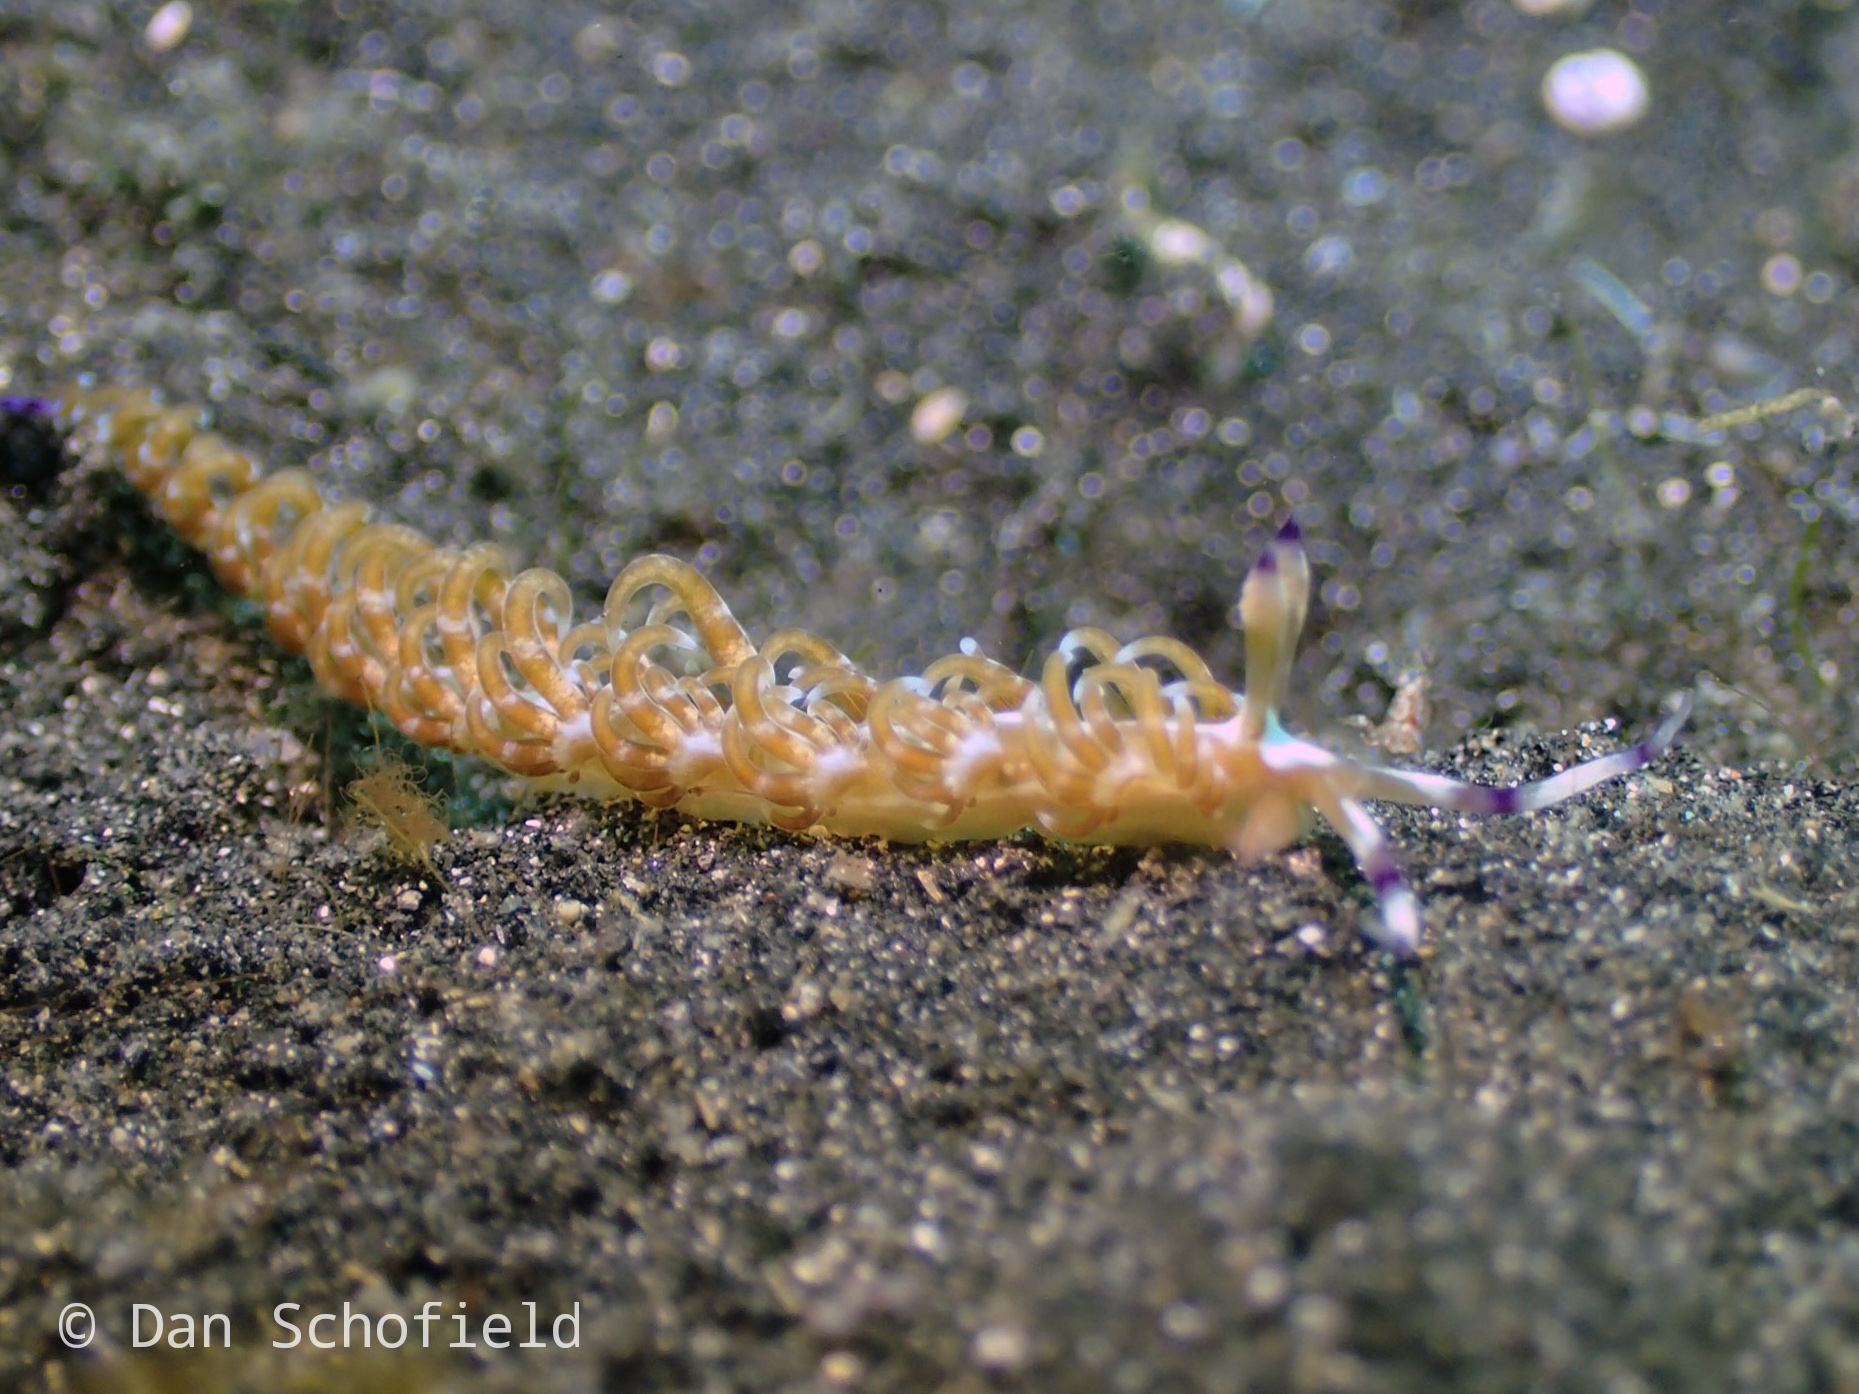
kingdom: Animalia
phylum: Mollusca
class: Gastropoda
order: Nudibranchia
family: Facelinidae
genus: Pteraeolidia
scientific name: Pteraeolidia semperi
